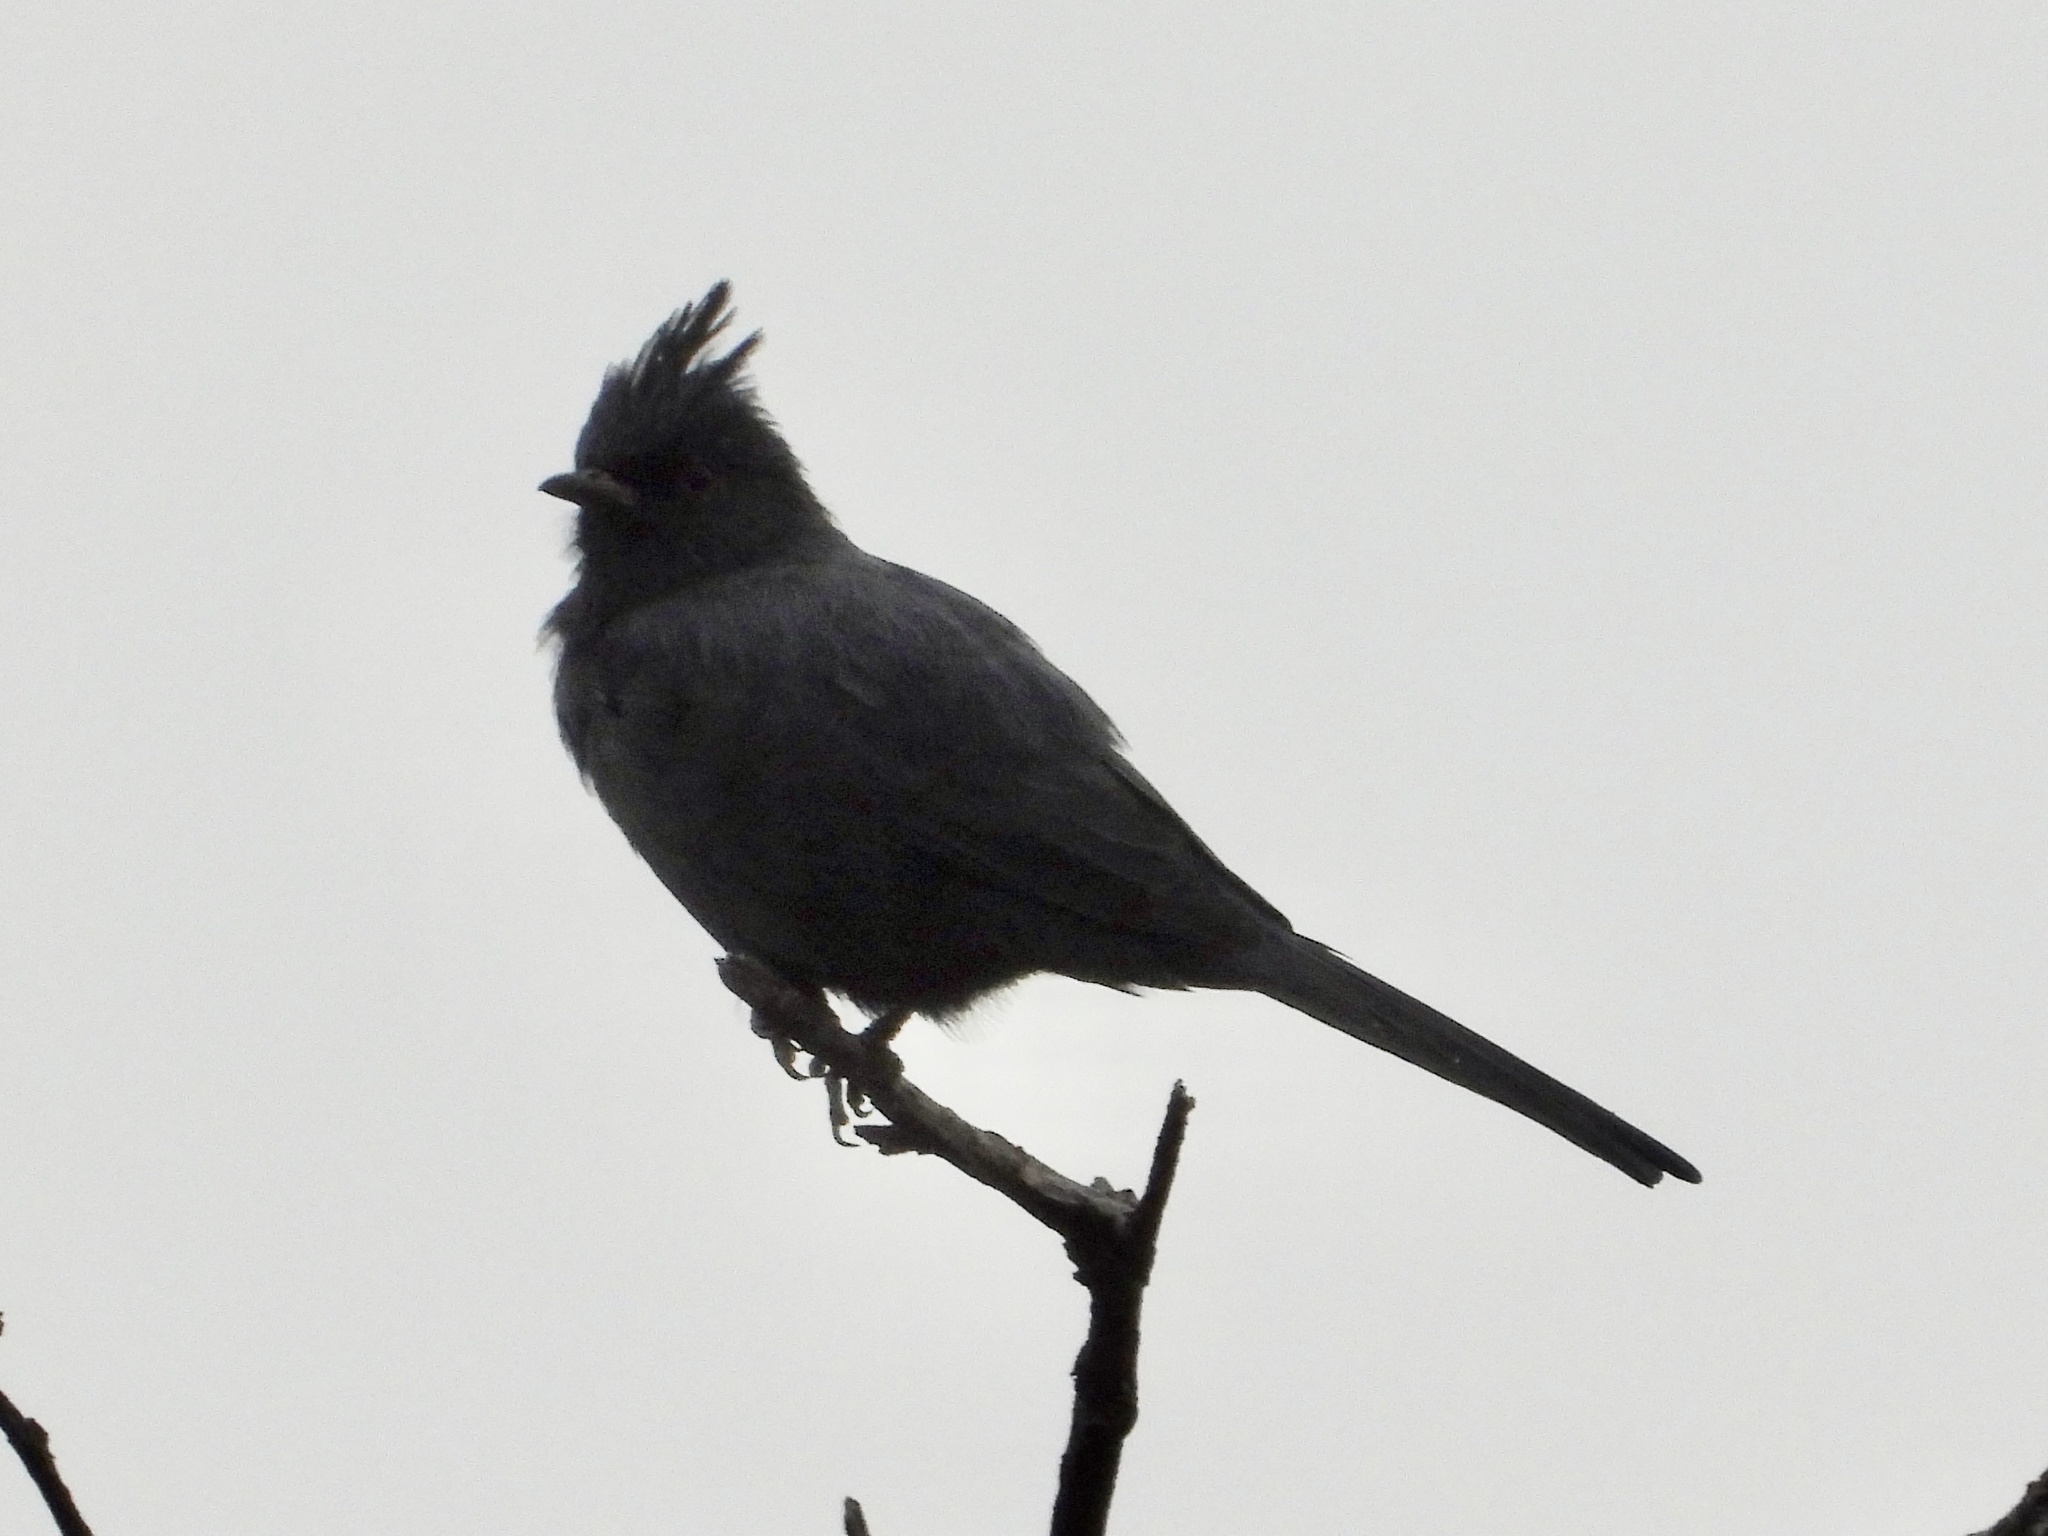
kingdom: Animalia
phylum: Chordata
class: Aves
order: Passeriformes
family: Ptilogonatidae
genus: Phainopepla
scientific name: Phainopepla nitens
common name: Phainopepla
